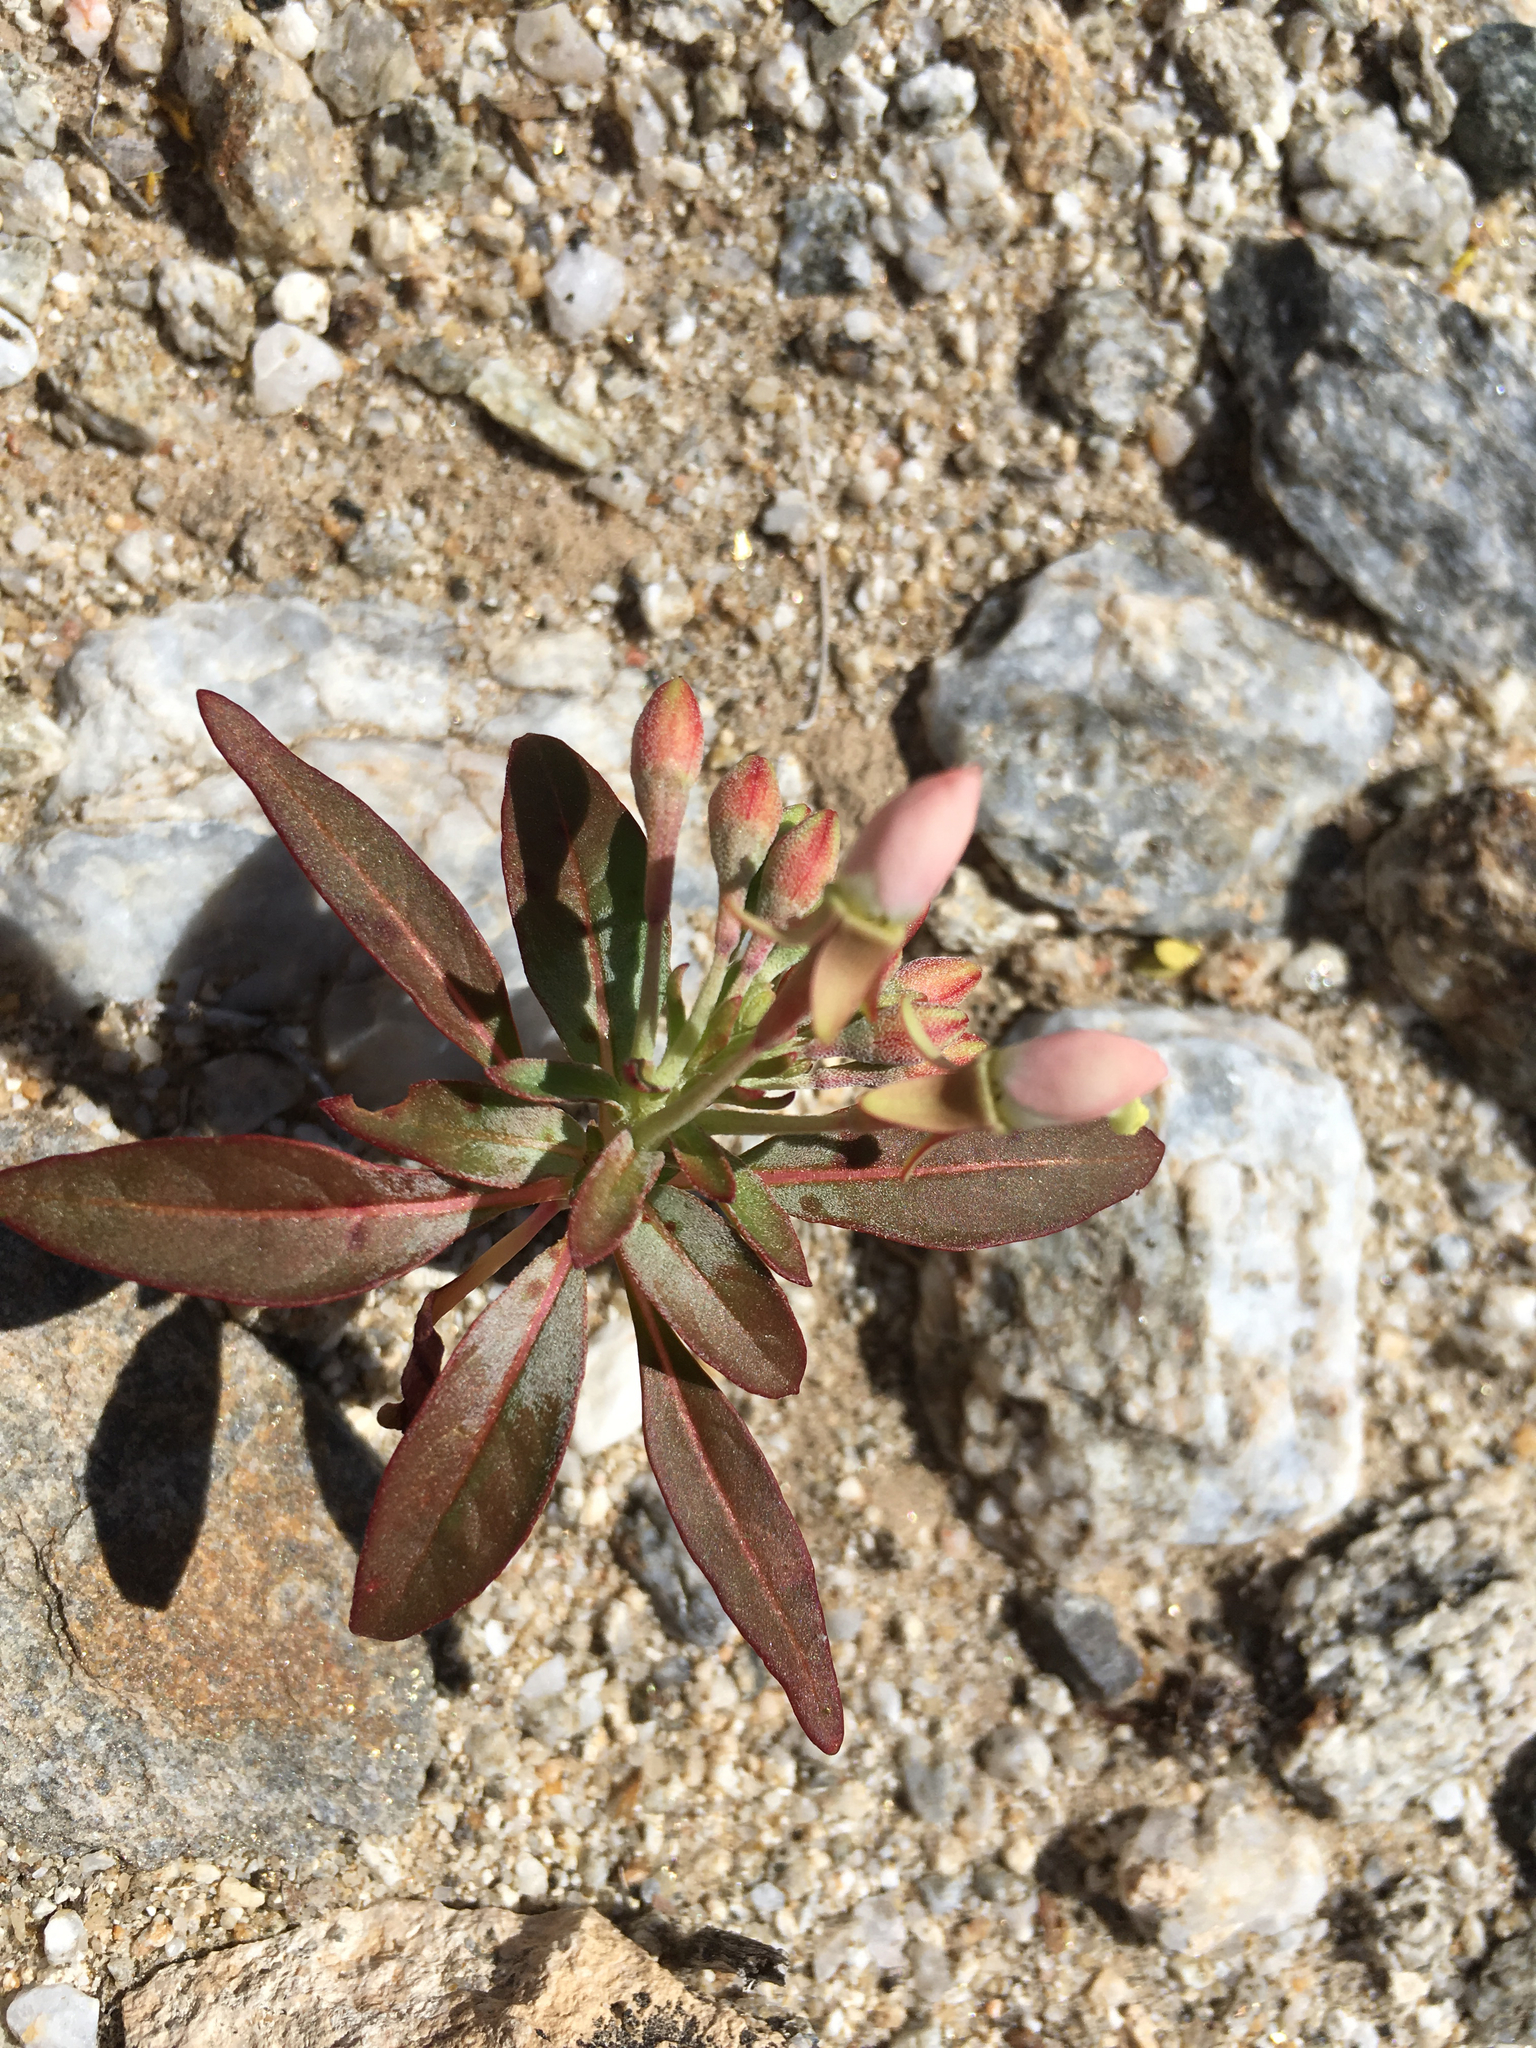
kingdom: Plantae
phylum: Tracheophyta
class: Magnoliopsida
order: Myrtales
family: Onagraceae
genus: Eremothera
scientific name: Eremothera boothii
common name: Booth's evening primrose
